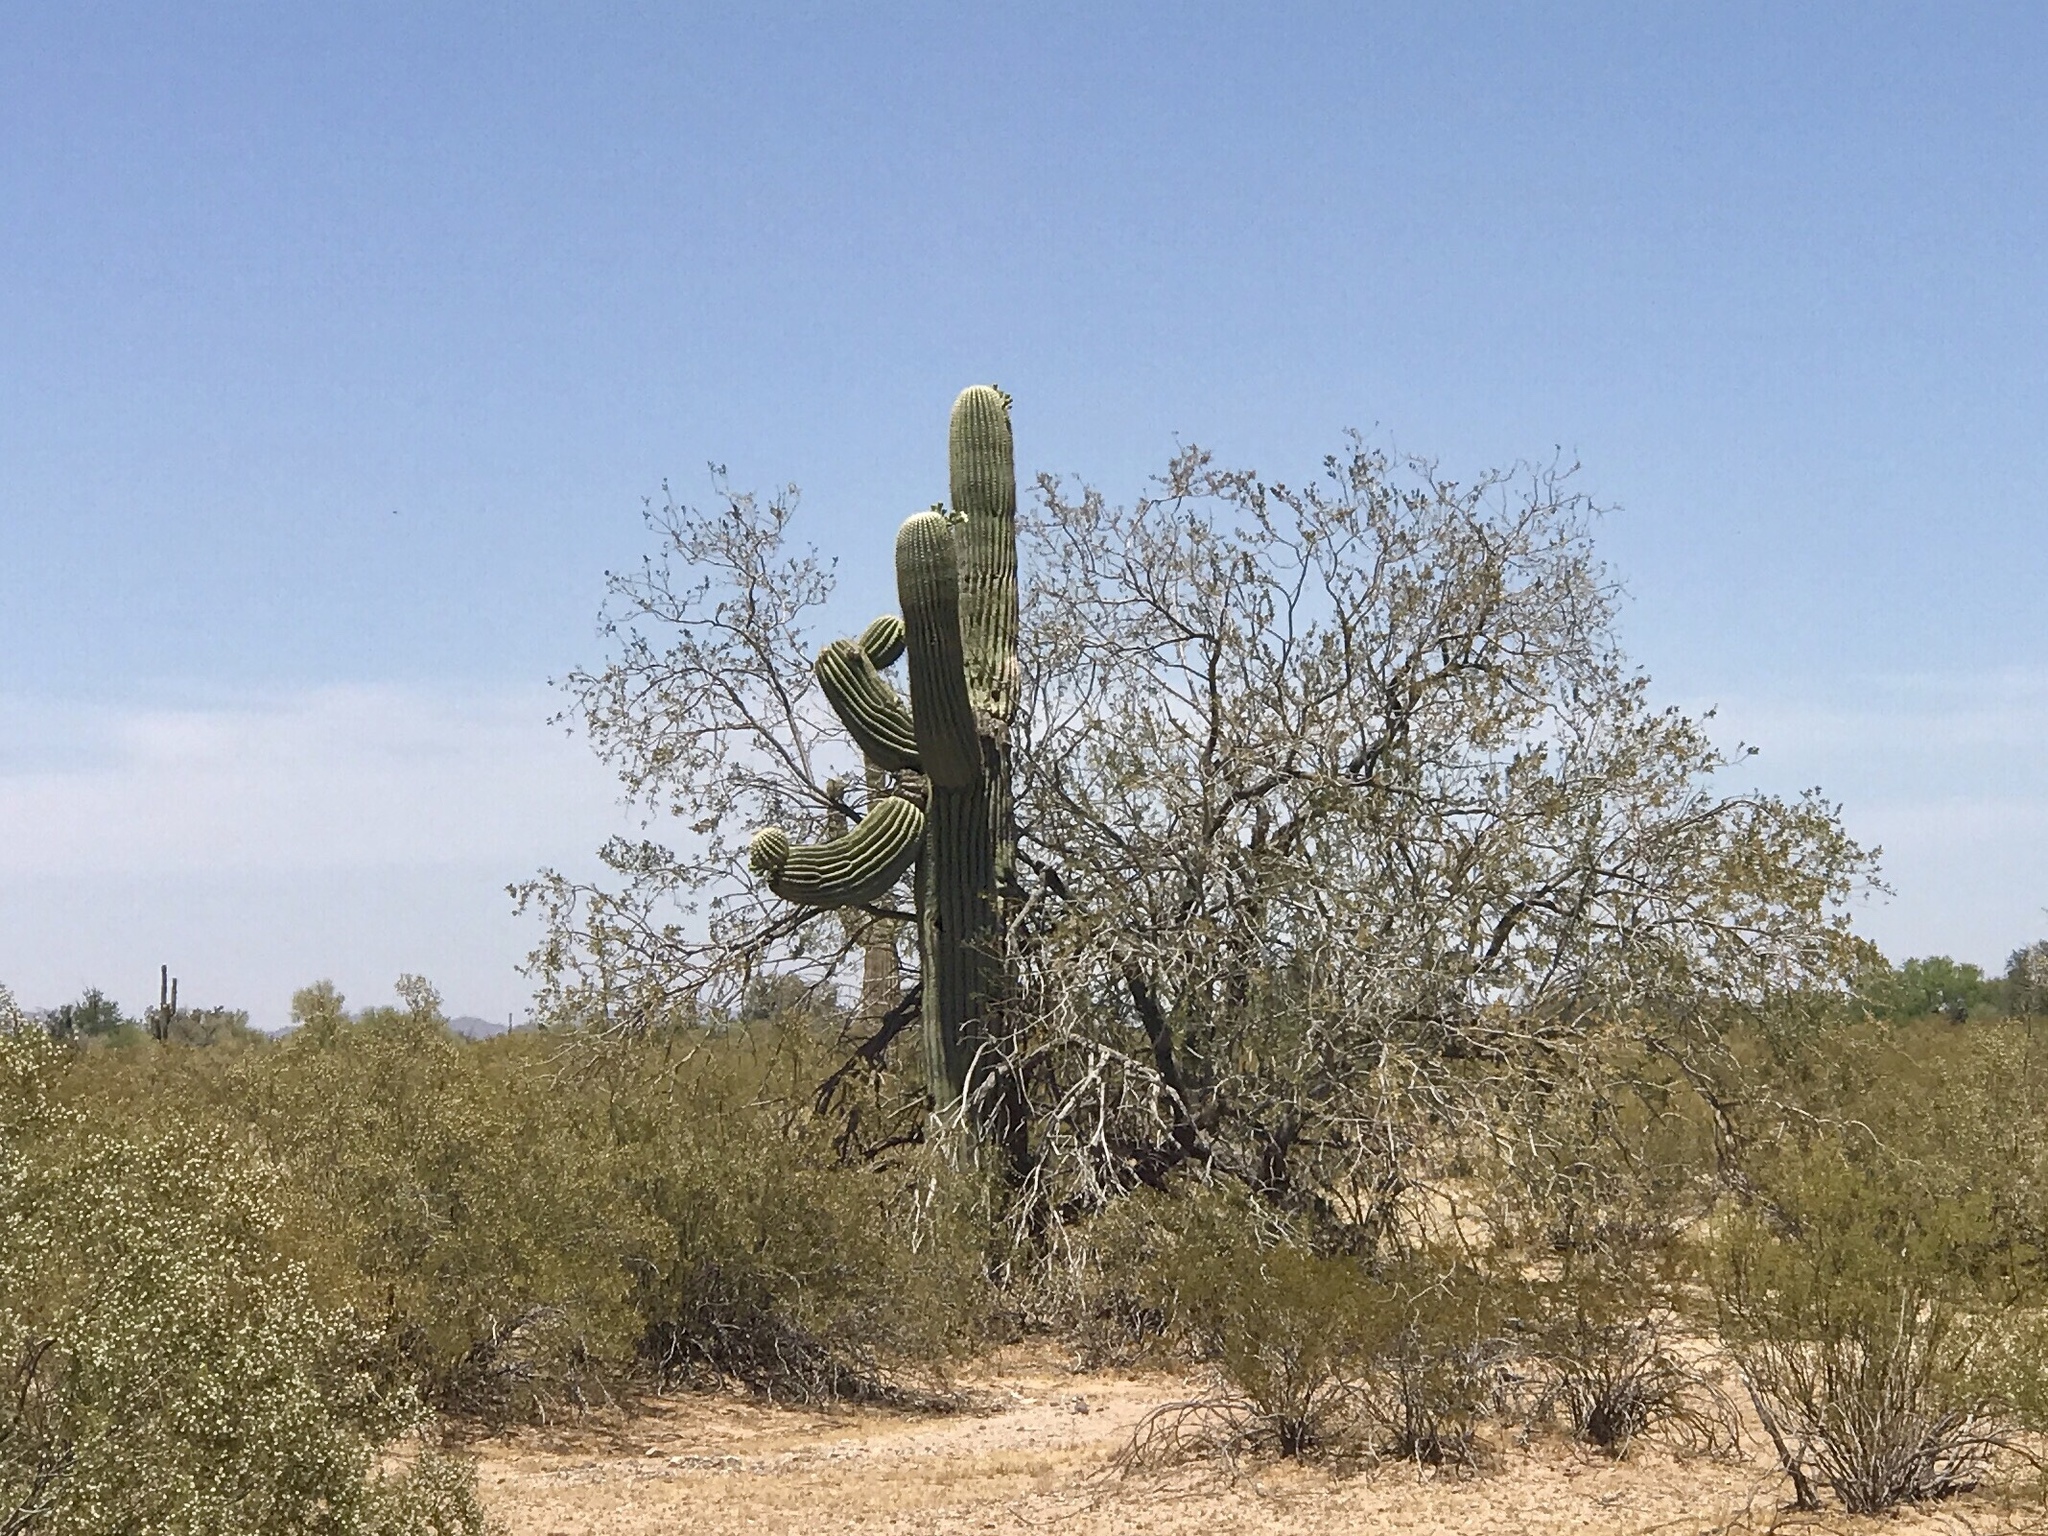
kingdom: Plantae
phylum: Tracheophyta
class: Magnoliopsida
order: Caryophyllales
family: Cactaceae
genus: Carnegiea
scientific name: Carnegiea gigantea
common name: Saguaro
